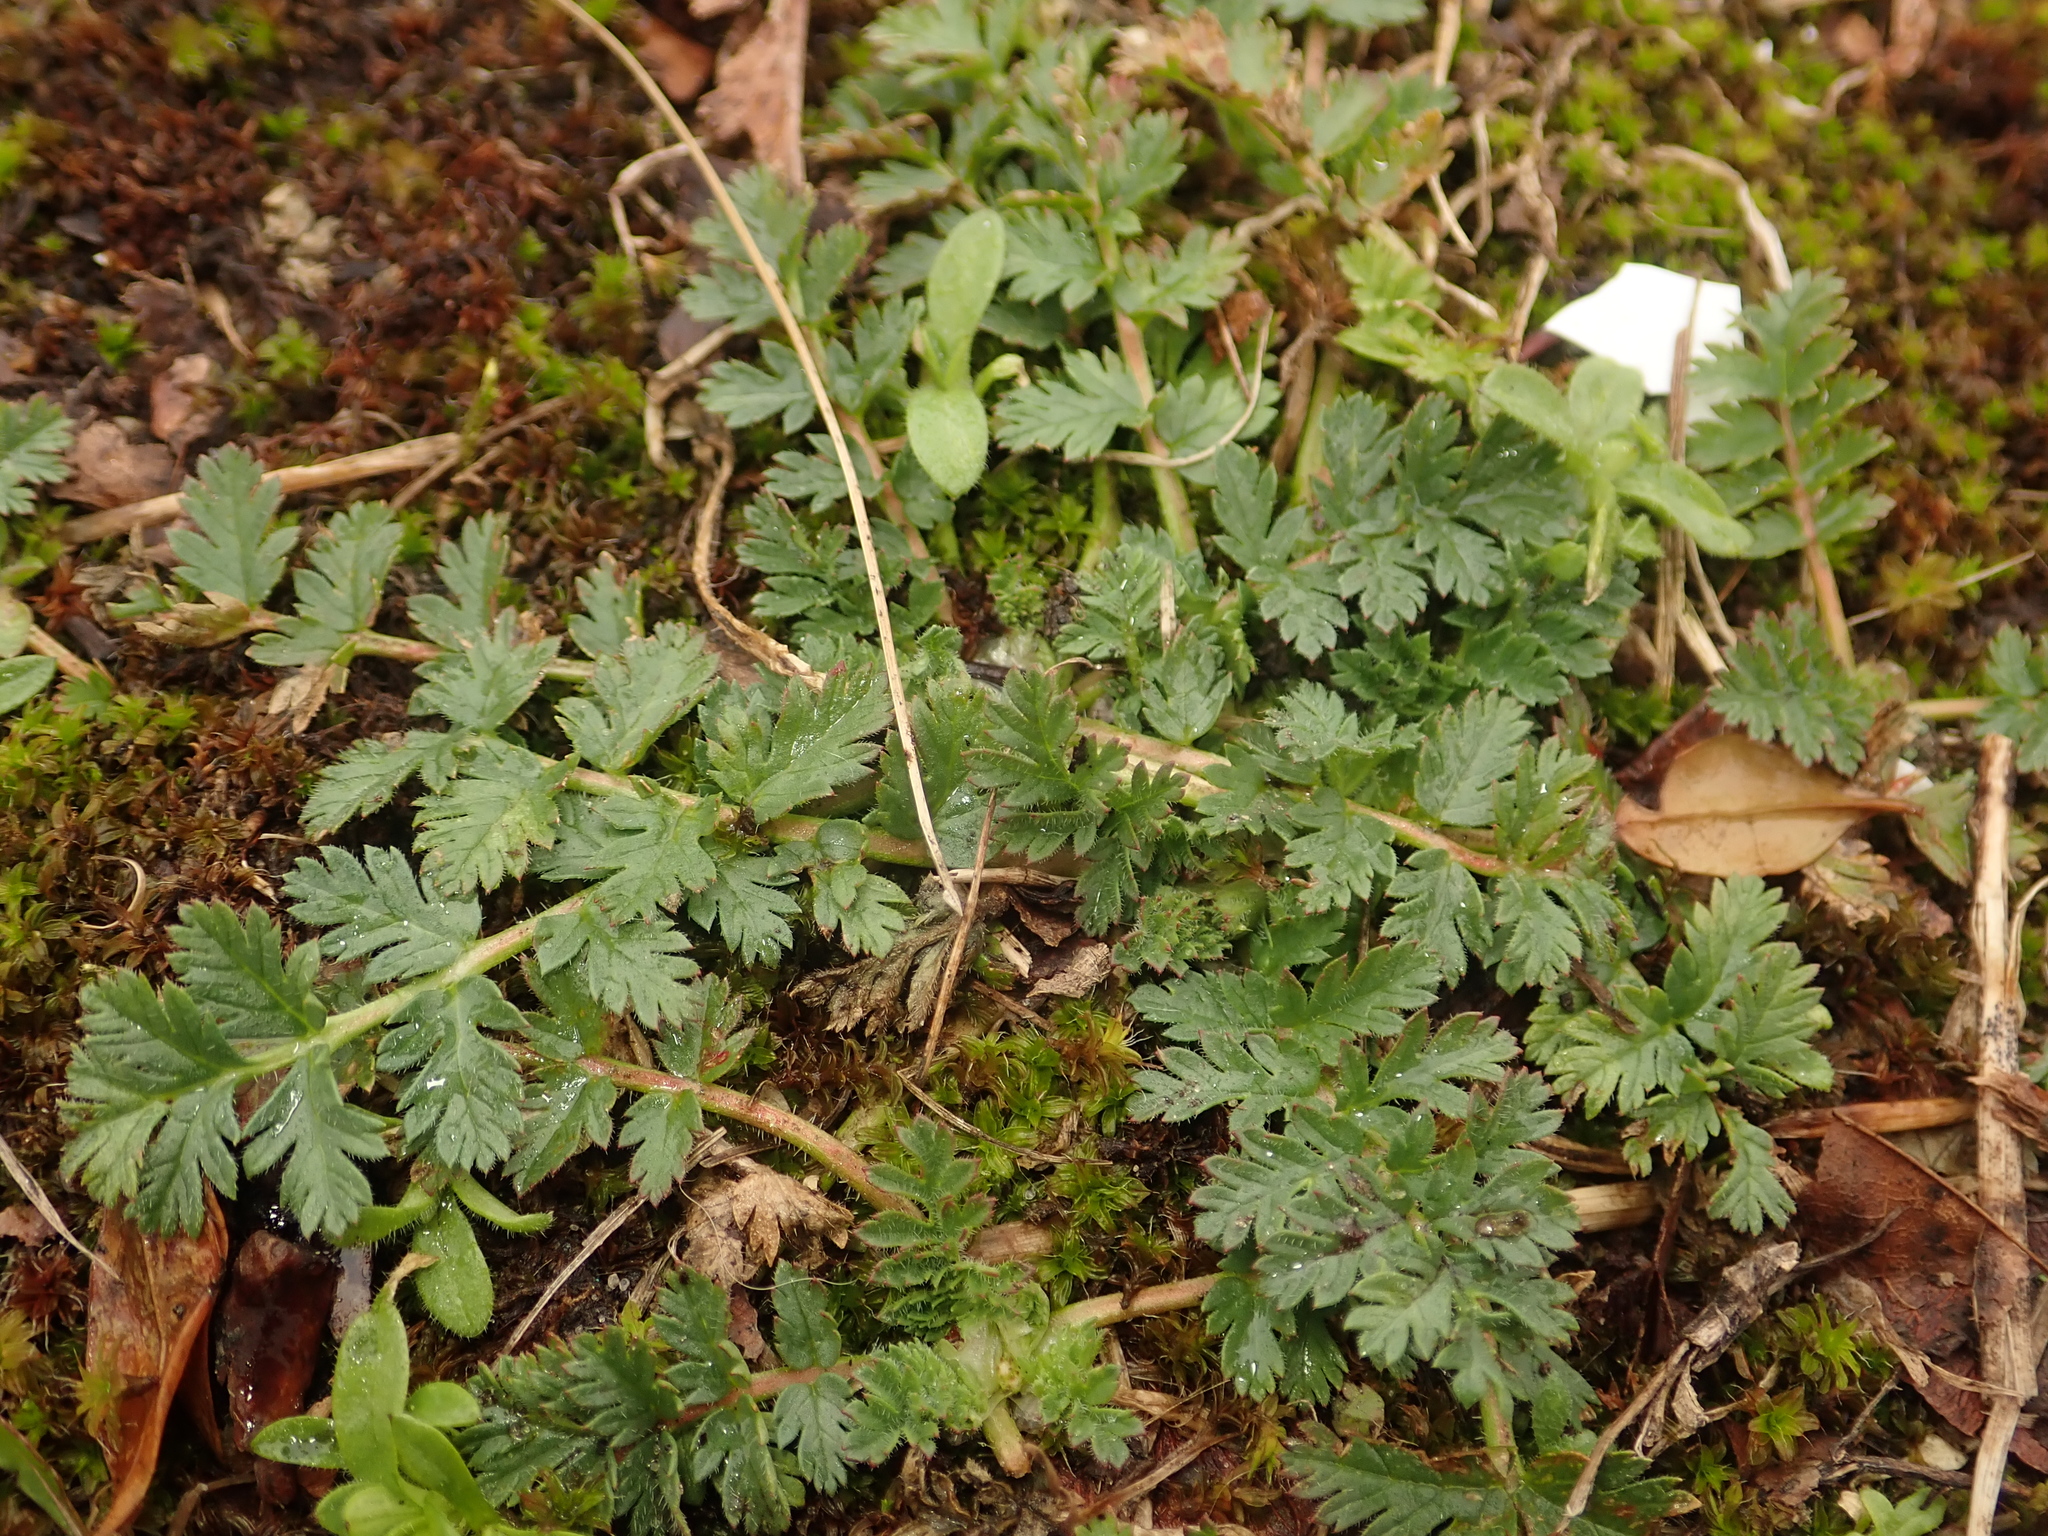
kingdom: Plantae
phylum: Tracheophyta
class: Magnoliopsida
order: Geraniales
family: Geraniaceae
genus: Erodium
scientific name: Erodium cicutarium
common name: Common stork's-bill
